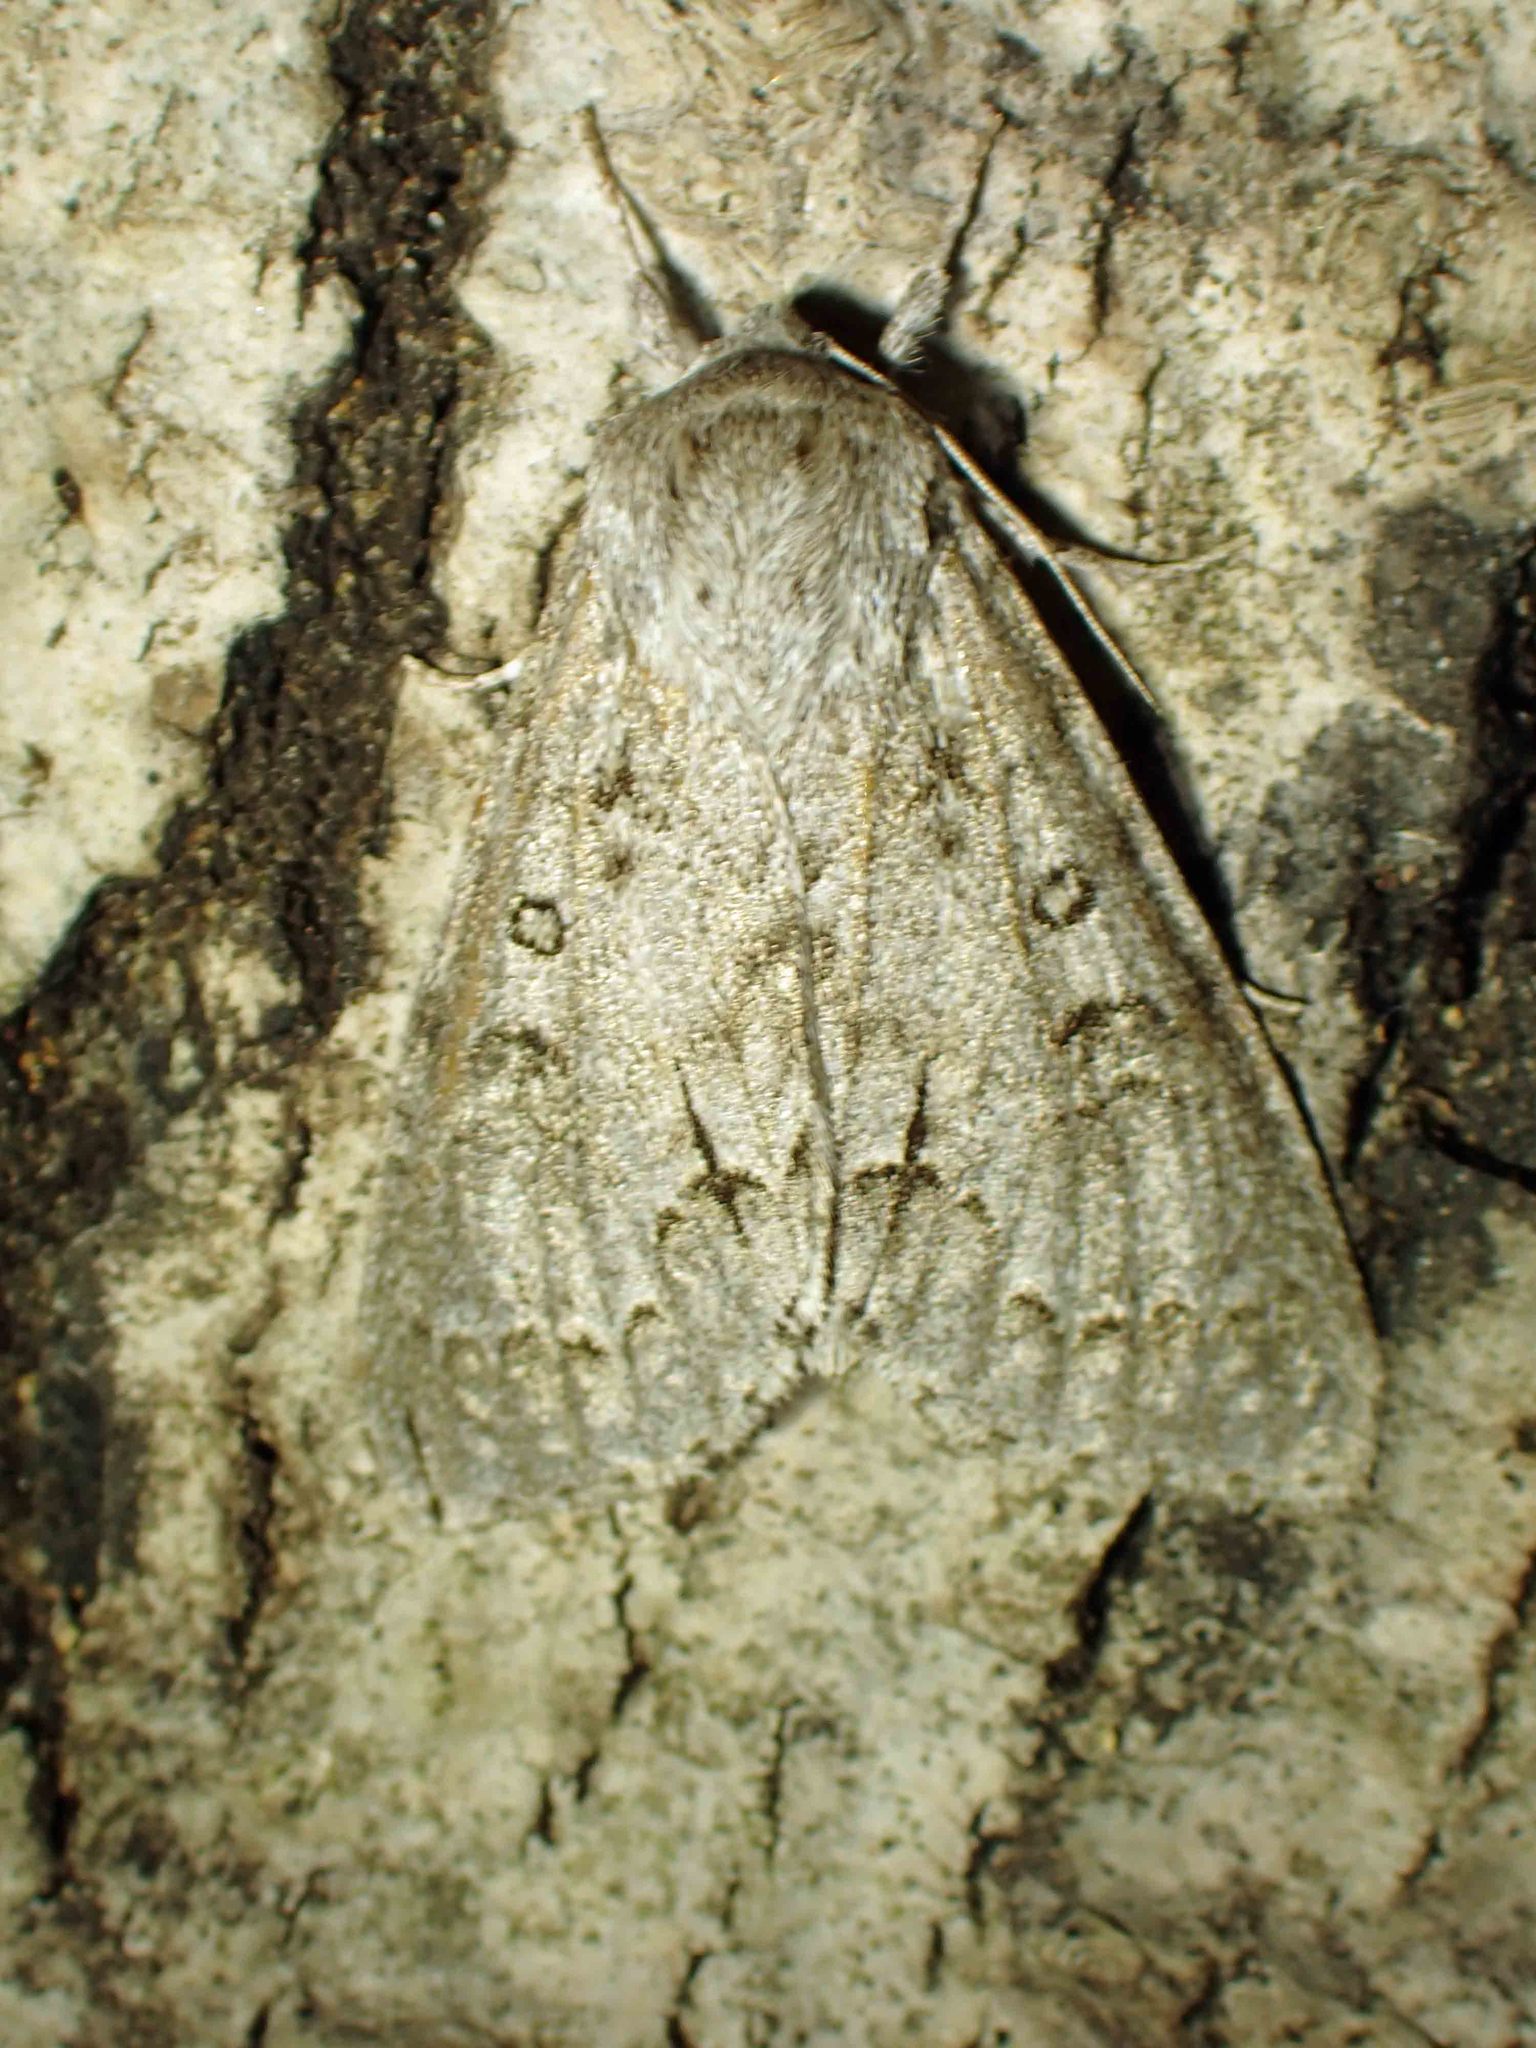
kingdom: Animalia
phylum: Arthropoda
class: Insecta
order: Lepidoptera
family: Noctuidae
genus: Acronicta
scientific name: Acronicta insita
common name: Large gray dagger
